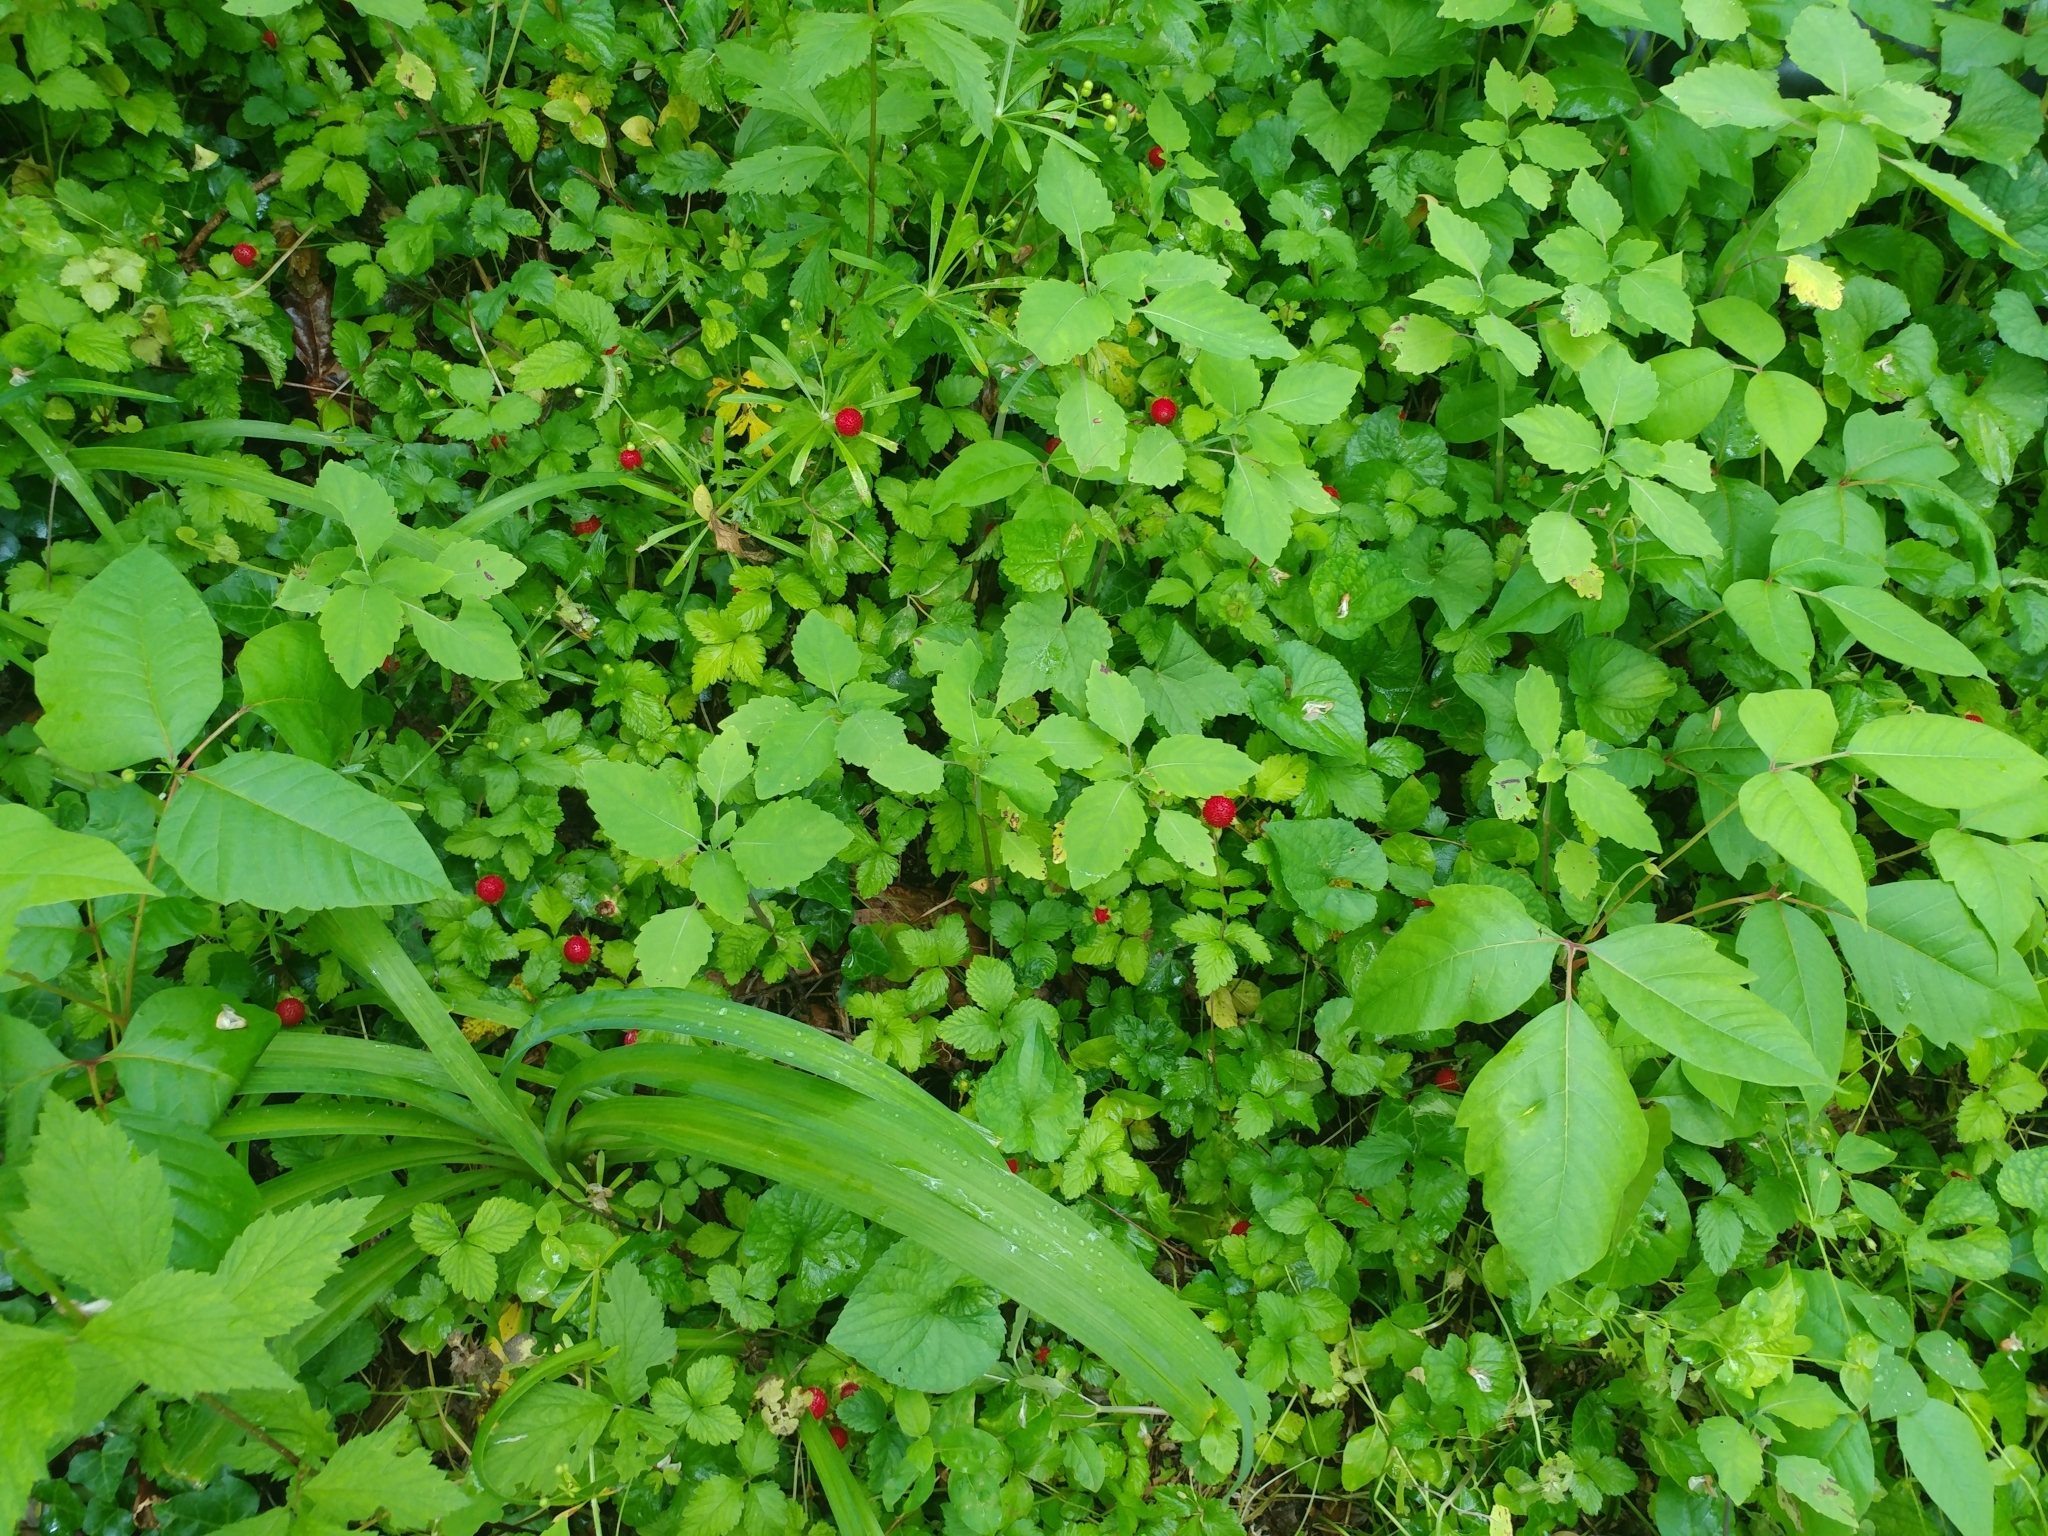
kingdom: Plantae
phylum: Tracheophyta
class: Magnoliopsida
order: Rosales
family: Rosaceae
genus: Potentilla
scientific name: Potentilla indica
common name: Yellow-flowered strawberry
